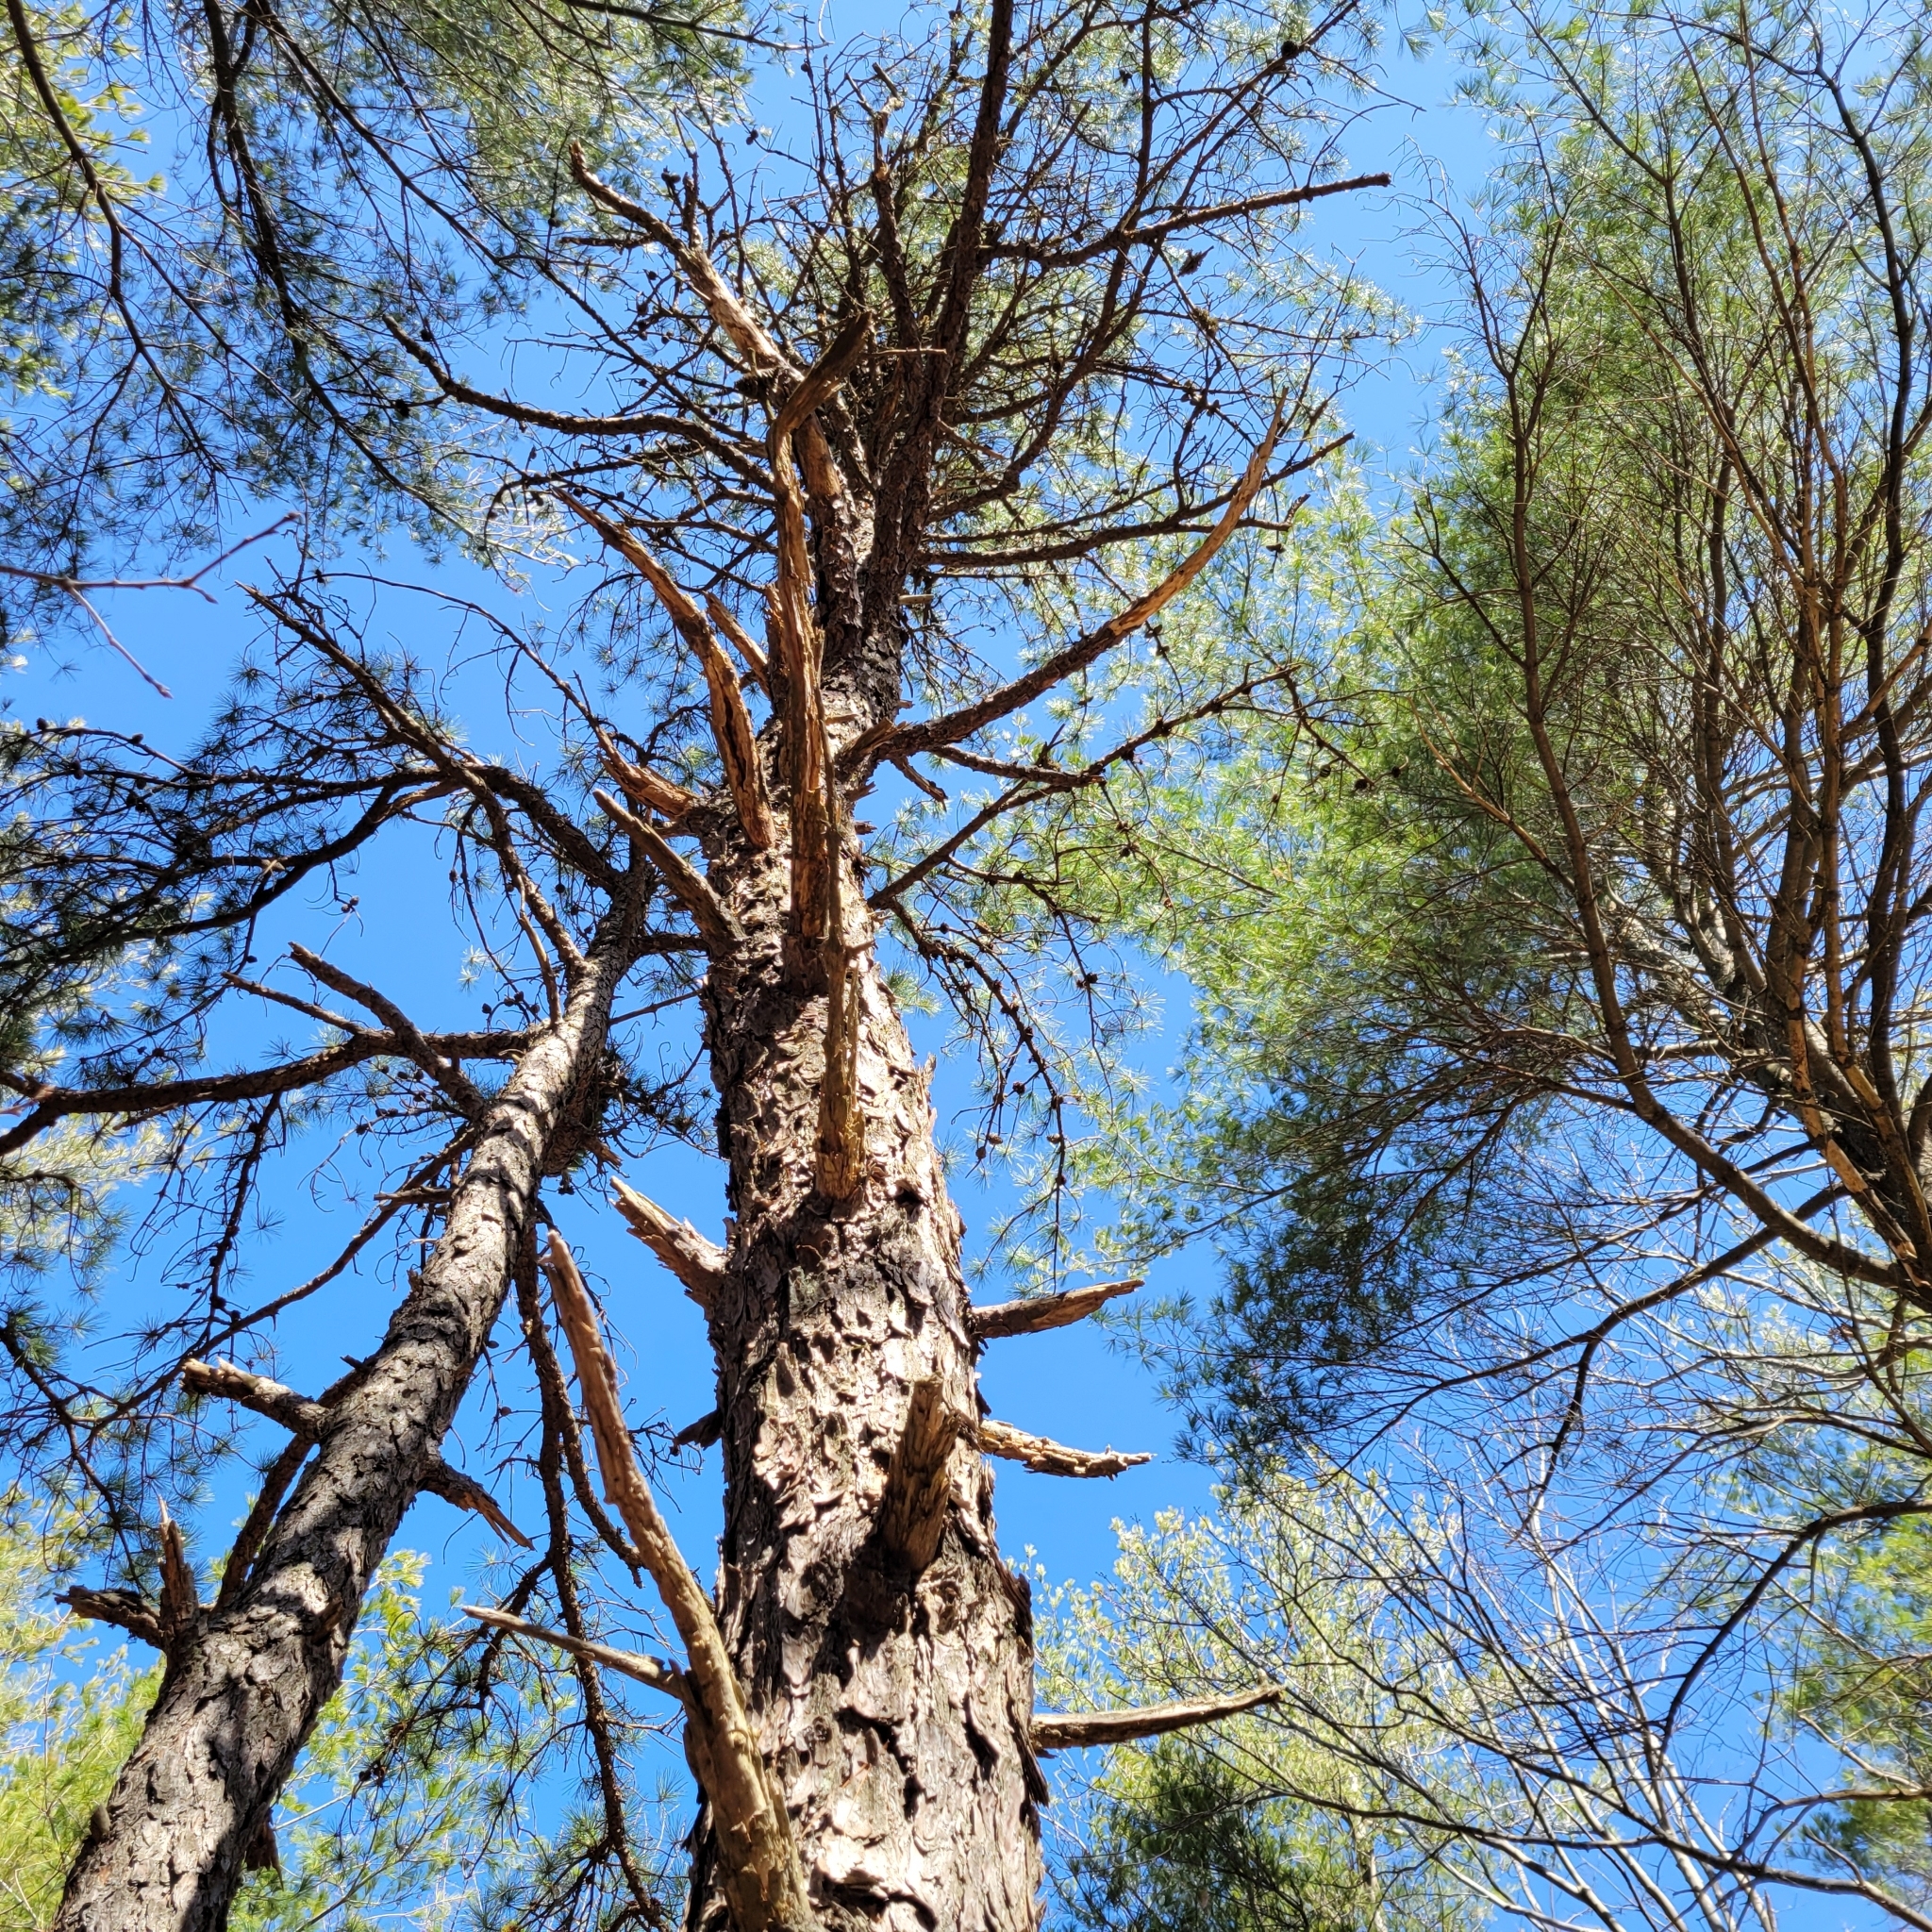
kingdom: Plantae
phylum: Tracheophyta
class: Pinopsida
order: Pinales
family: Pinaceae
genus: Pinus
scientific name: Pinus rigida
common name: Pitch pine
